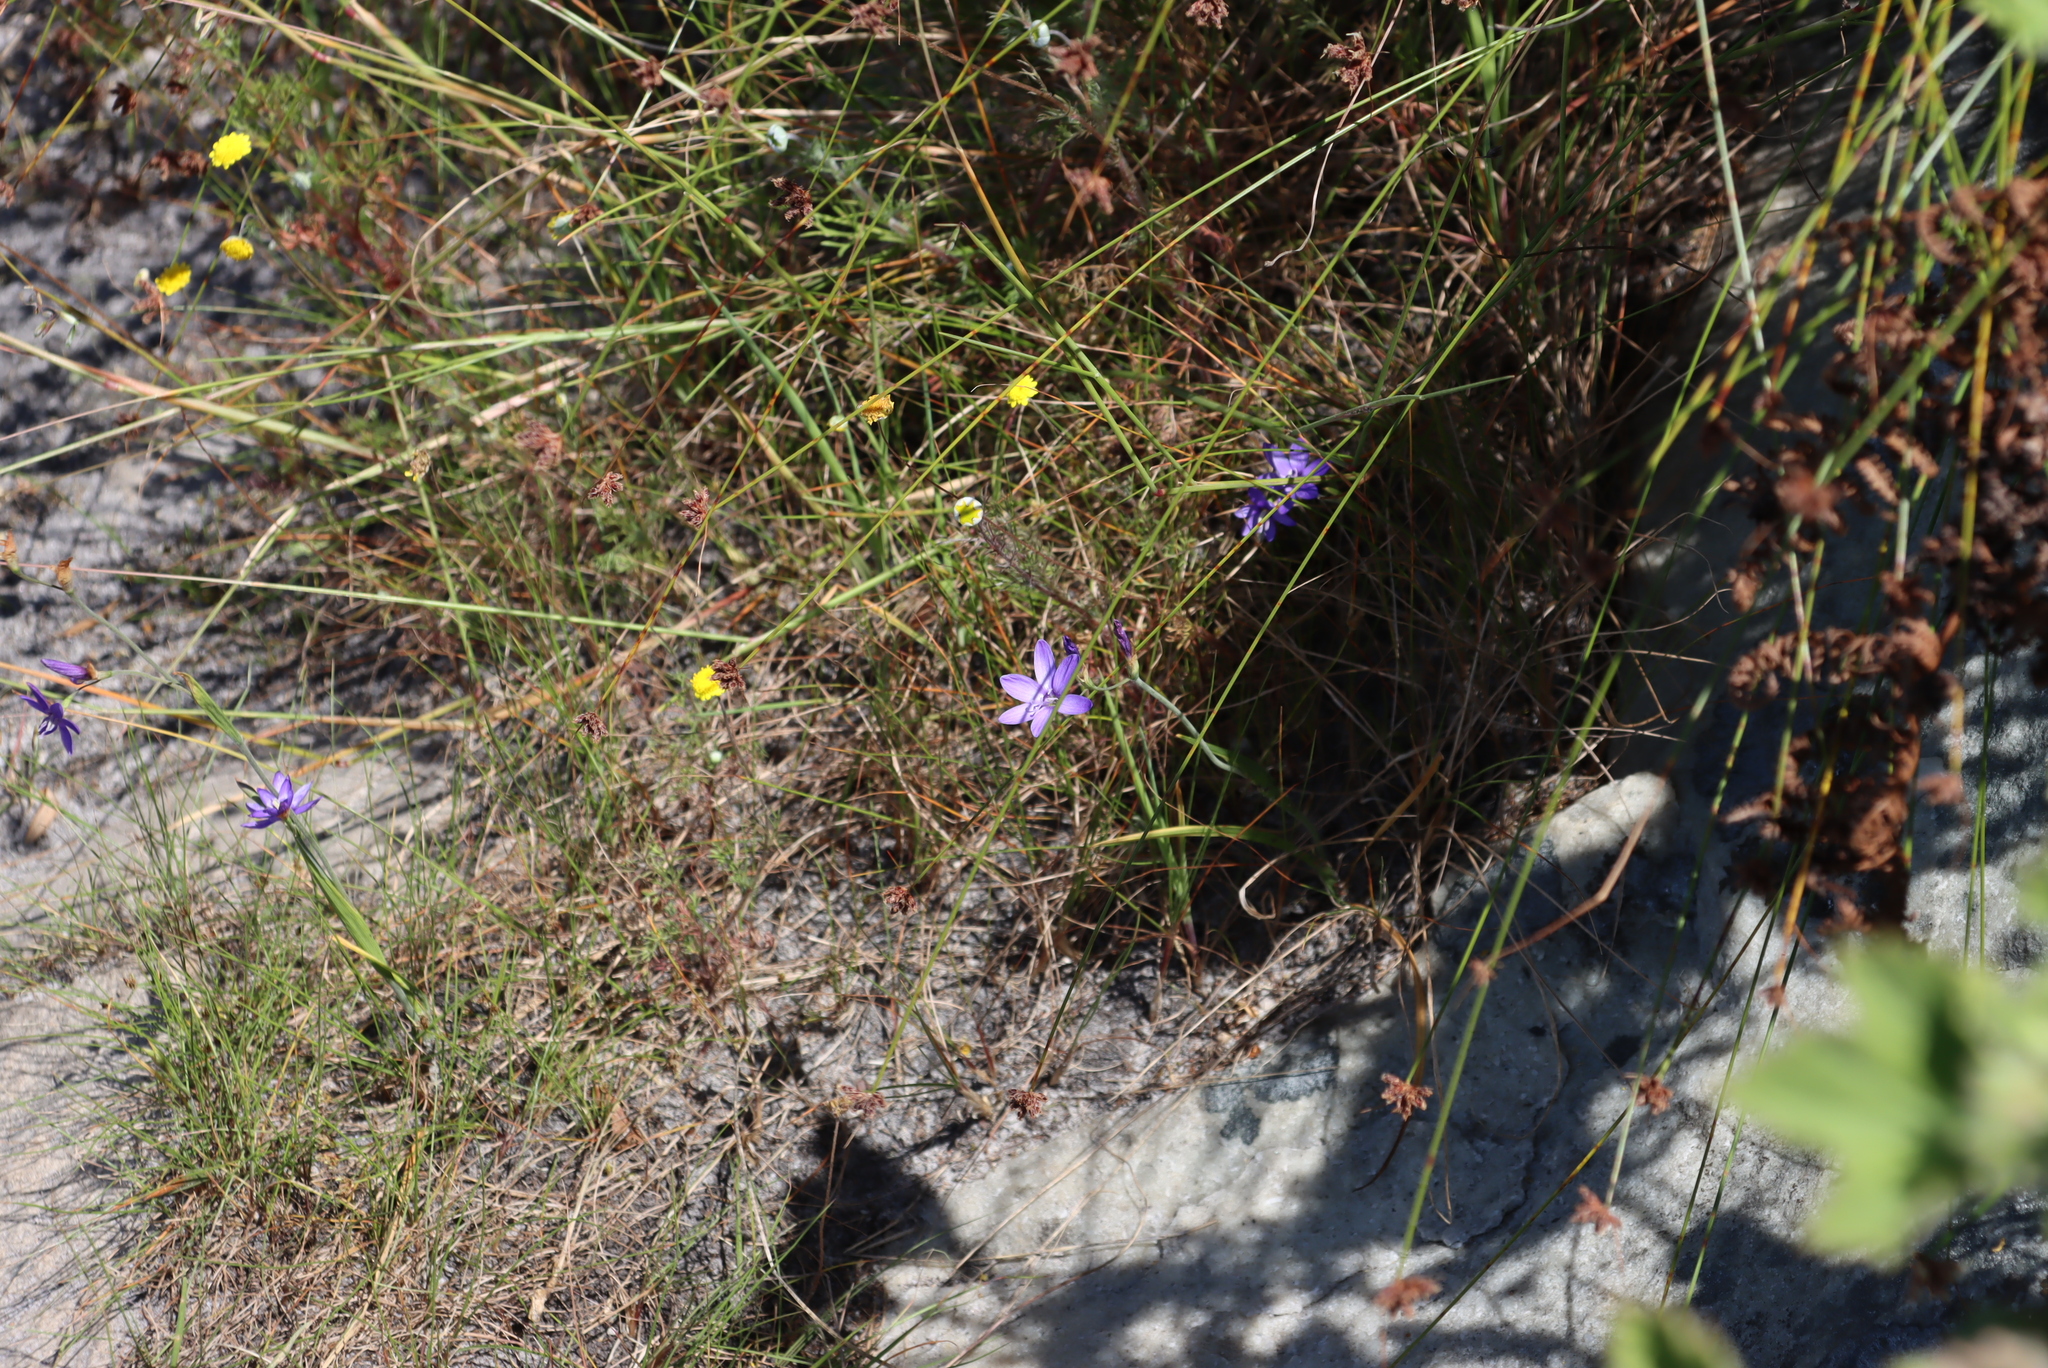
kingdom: Plantae
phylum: Tracheophyta
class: Liliopsida
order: Asparagales
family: Iridaceae
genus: Geissorhiza
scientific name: Geissorhiza aspera
